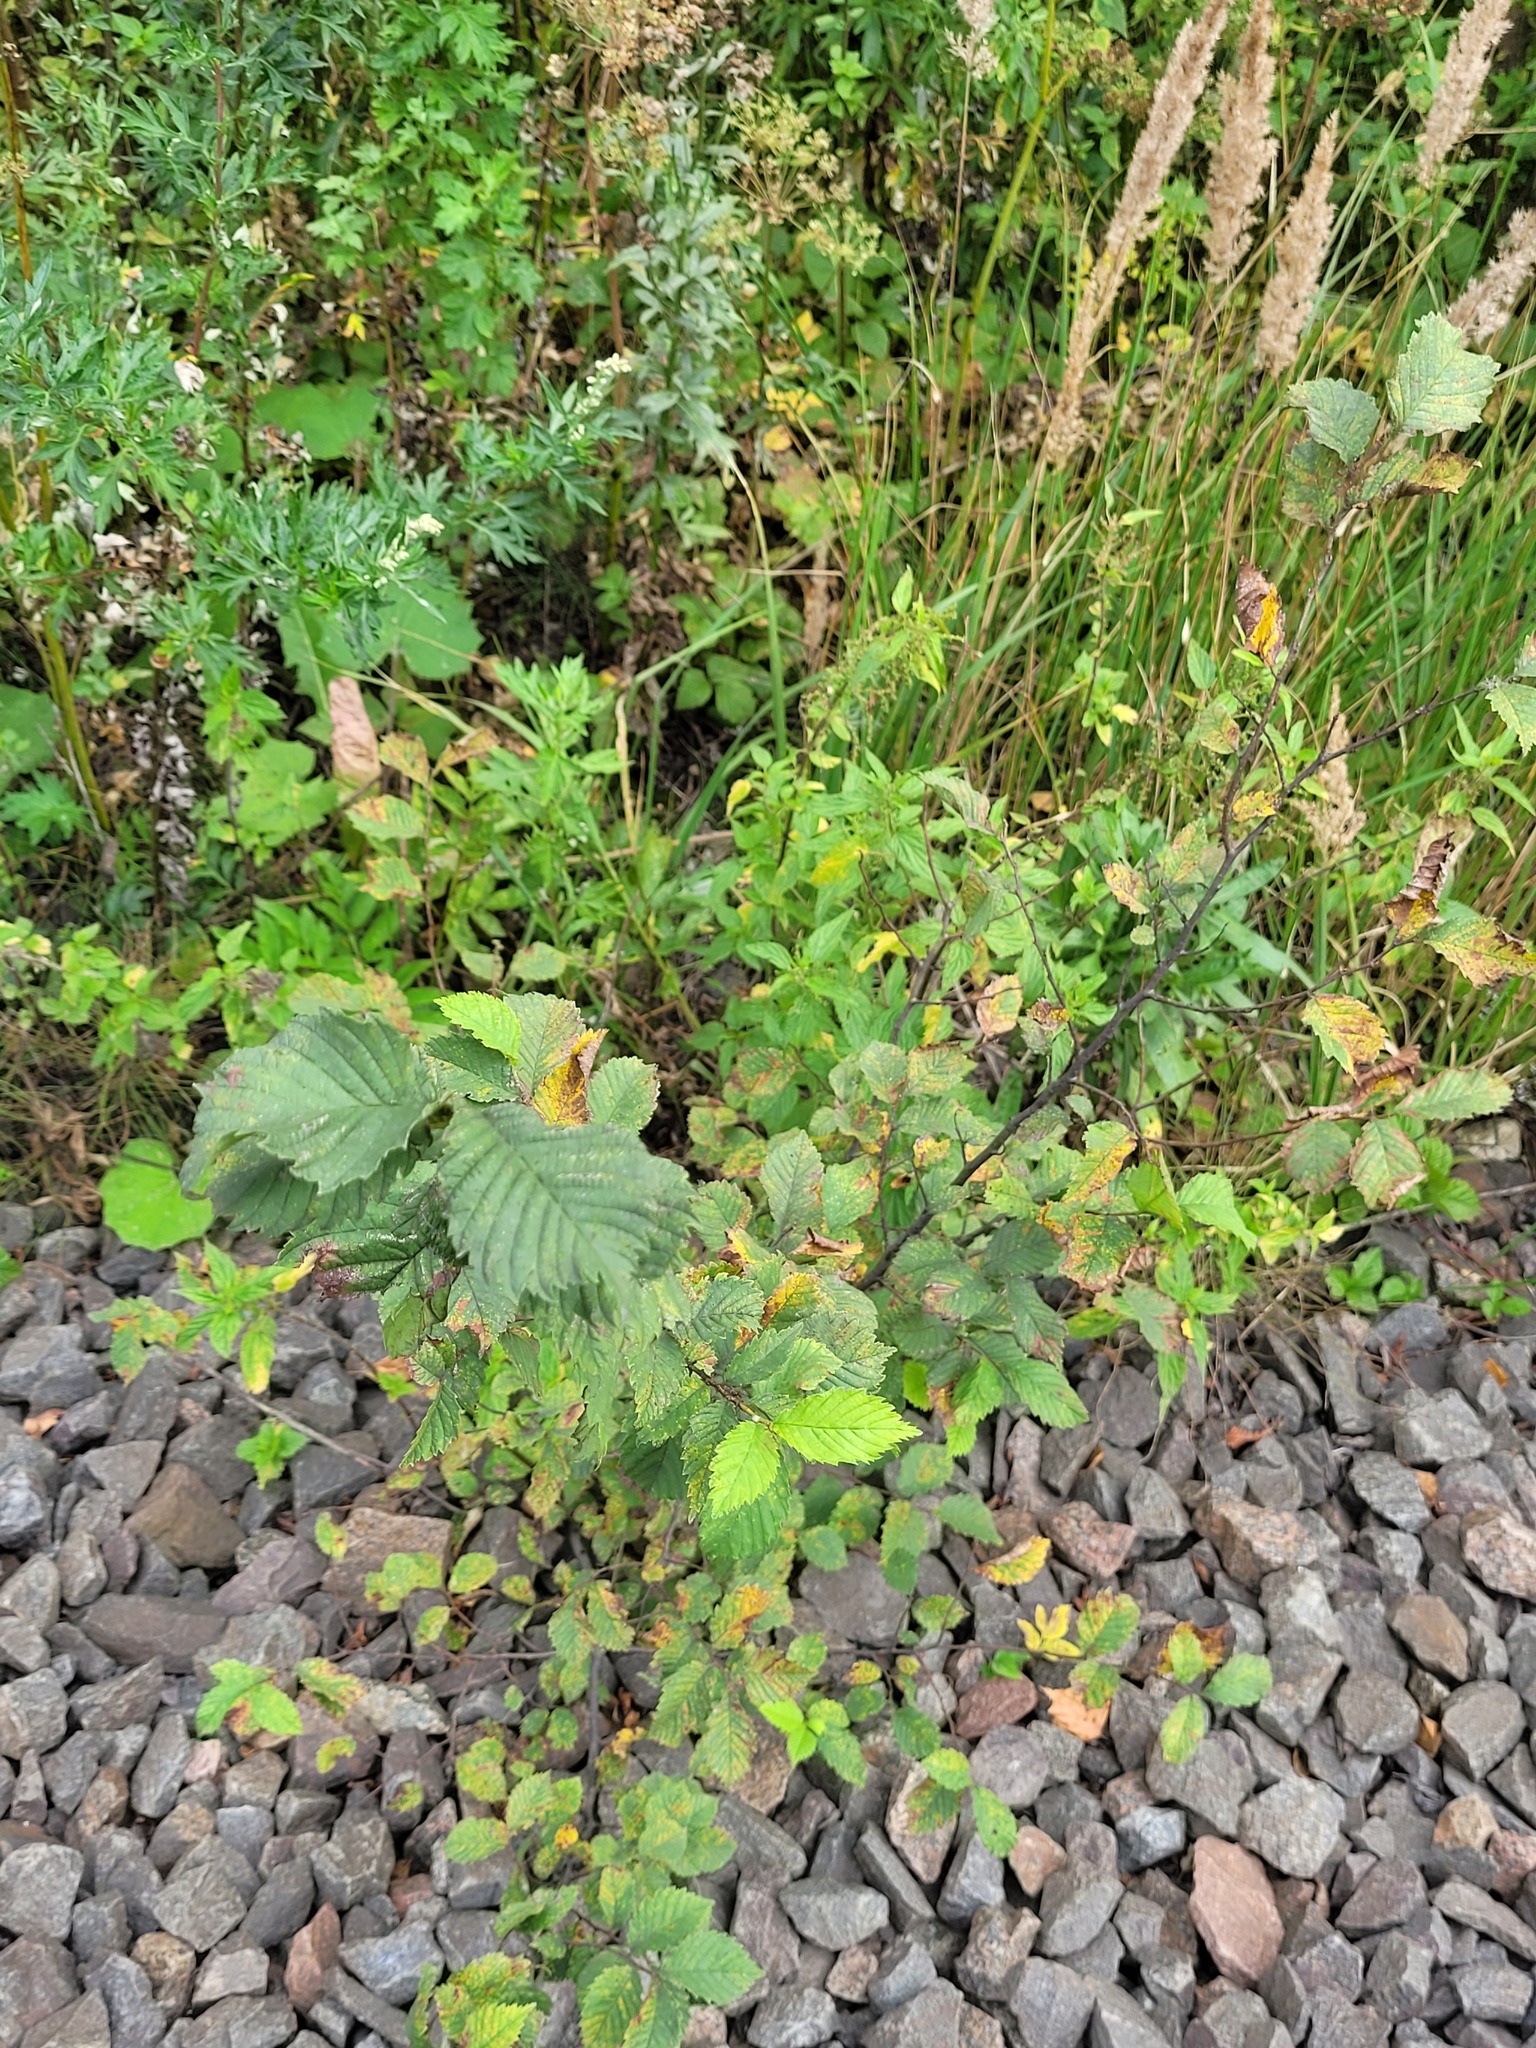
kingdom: Plantae
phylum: Tracheophyta
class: Magnoliopsida
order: Rosales
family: Ulmaceae
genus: Ulmus
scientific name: Ulmus laevis
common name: European white-elm
